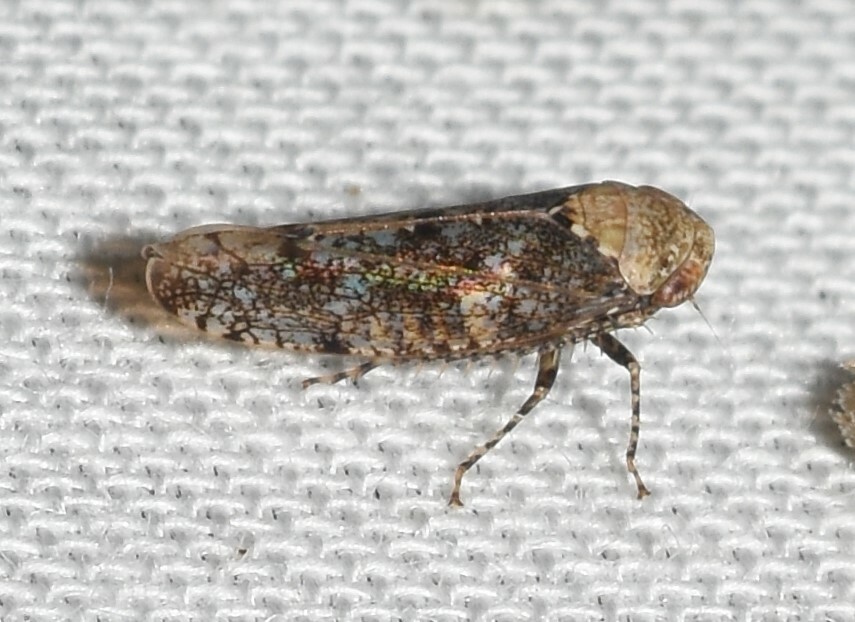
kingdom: Animalia
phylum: Arthropoda
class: Insecta
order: Hemiptera
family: Cicadellidae
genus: Paraphlepsius
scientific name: Paraphlepsius collitus
